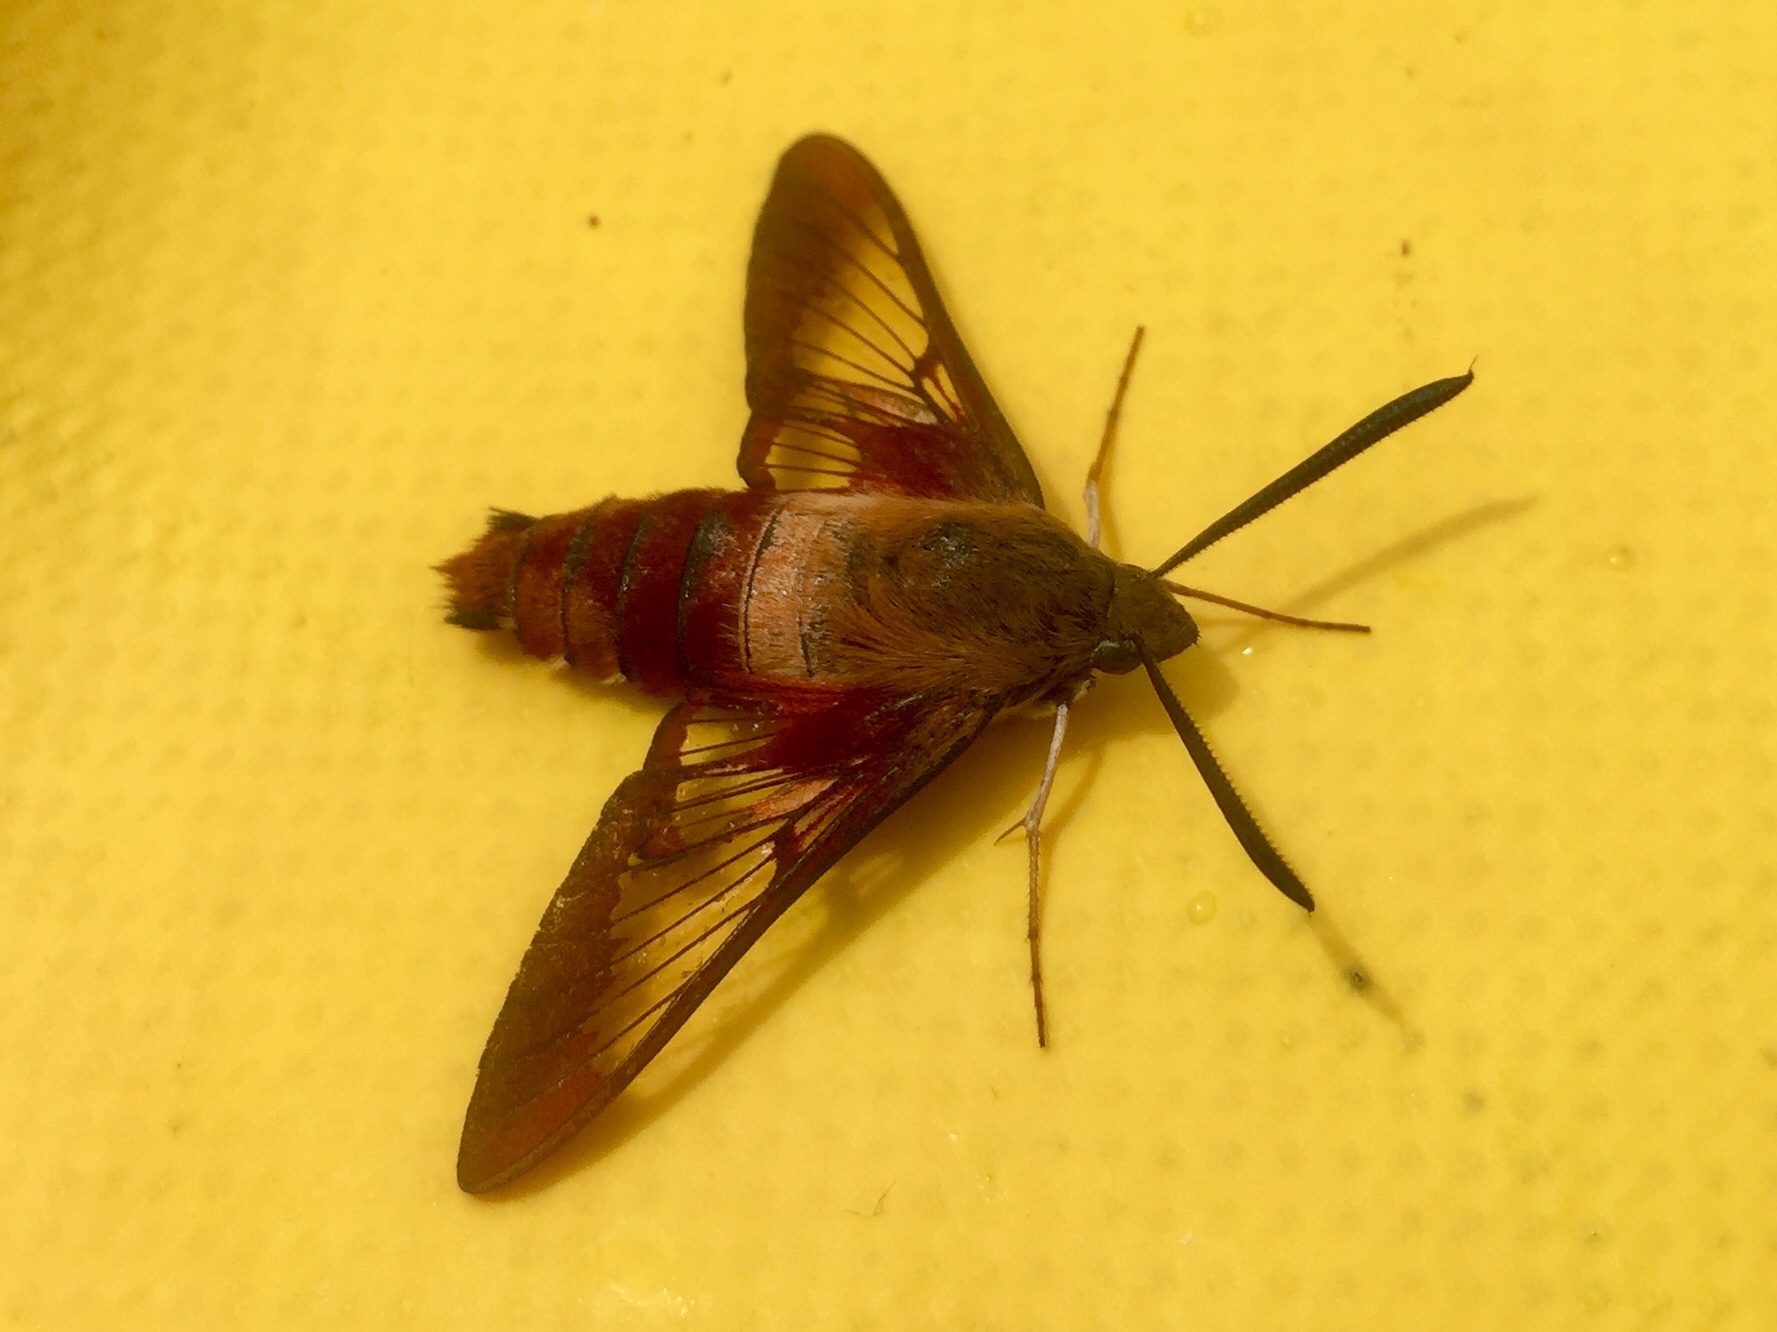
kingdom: Animalia
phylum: Arthropoda
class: Insecta
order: Lepidoptera
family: Sphingidae
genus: Hemaris
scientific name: Hemaris thysbe
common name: Common clear-wing
